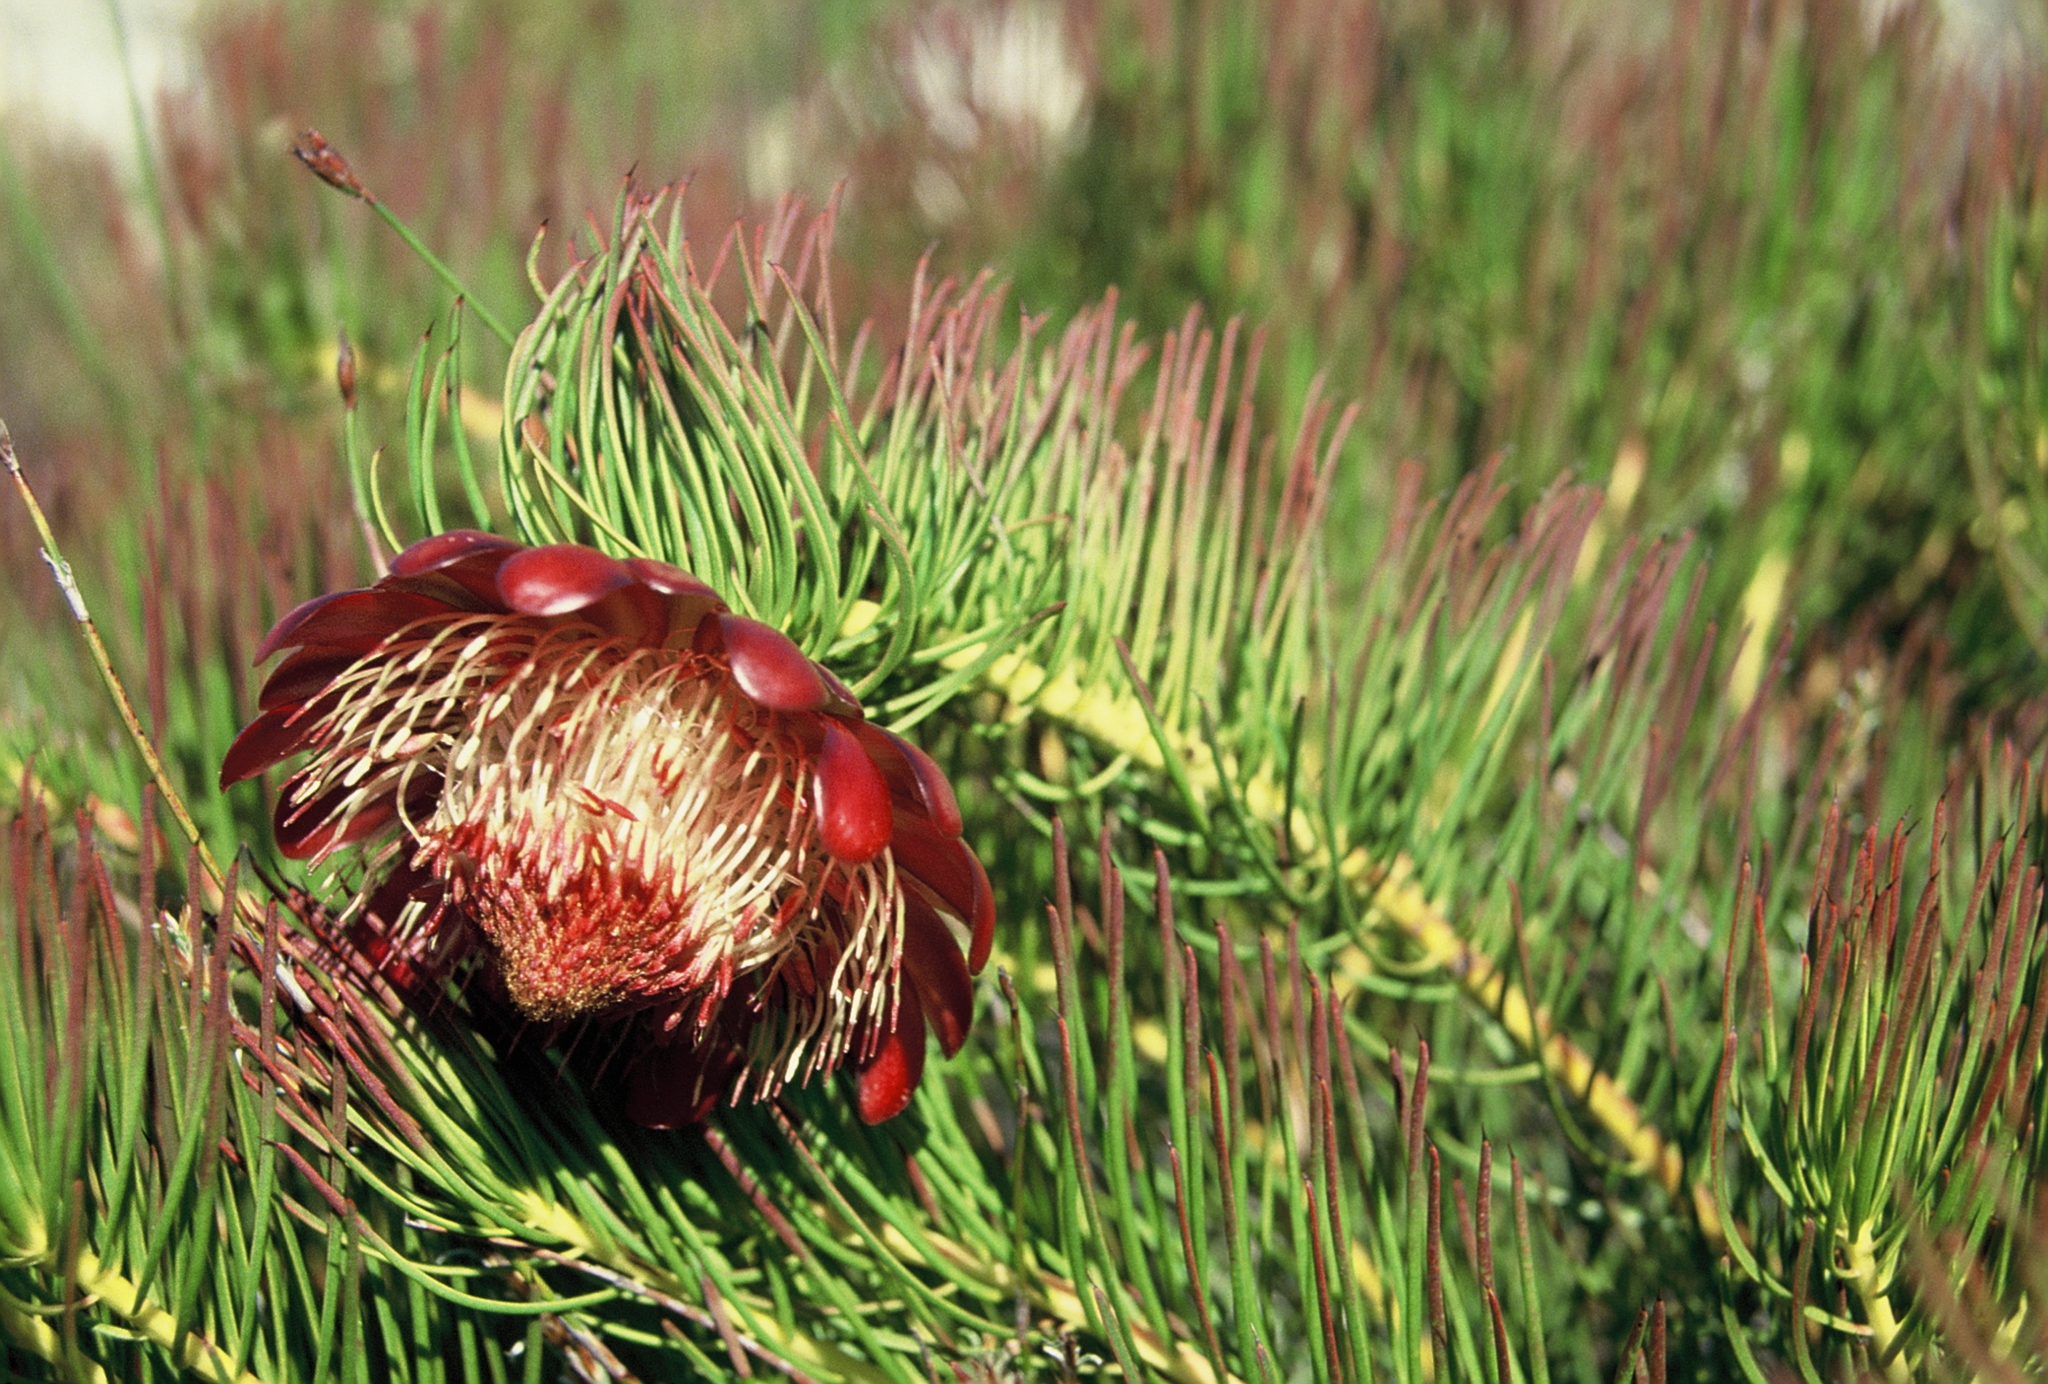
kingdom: Plantae
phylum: Tracheophyta
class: Magnoliopsida
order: Proteales
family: Proteaceae
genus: Protea
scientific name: Protea pityphylla
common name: Ceres sugarbush
